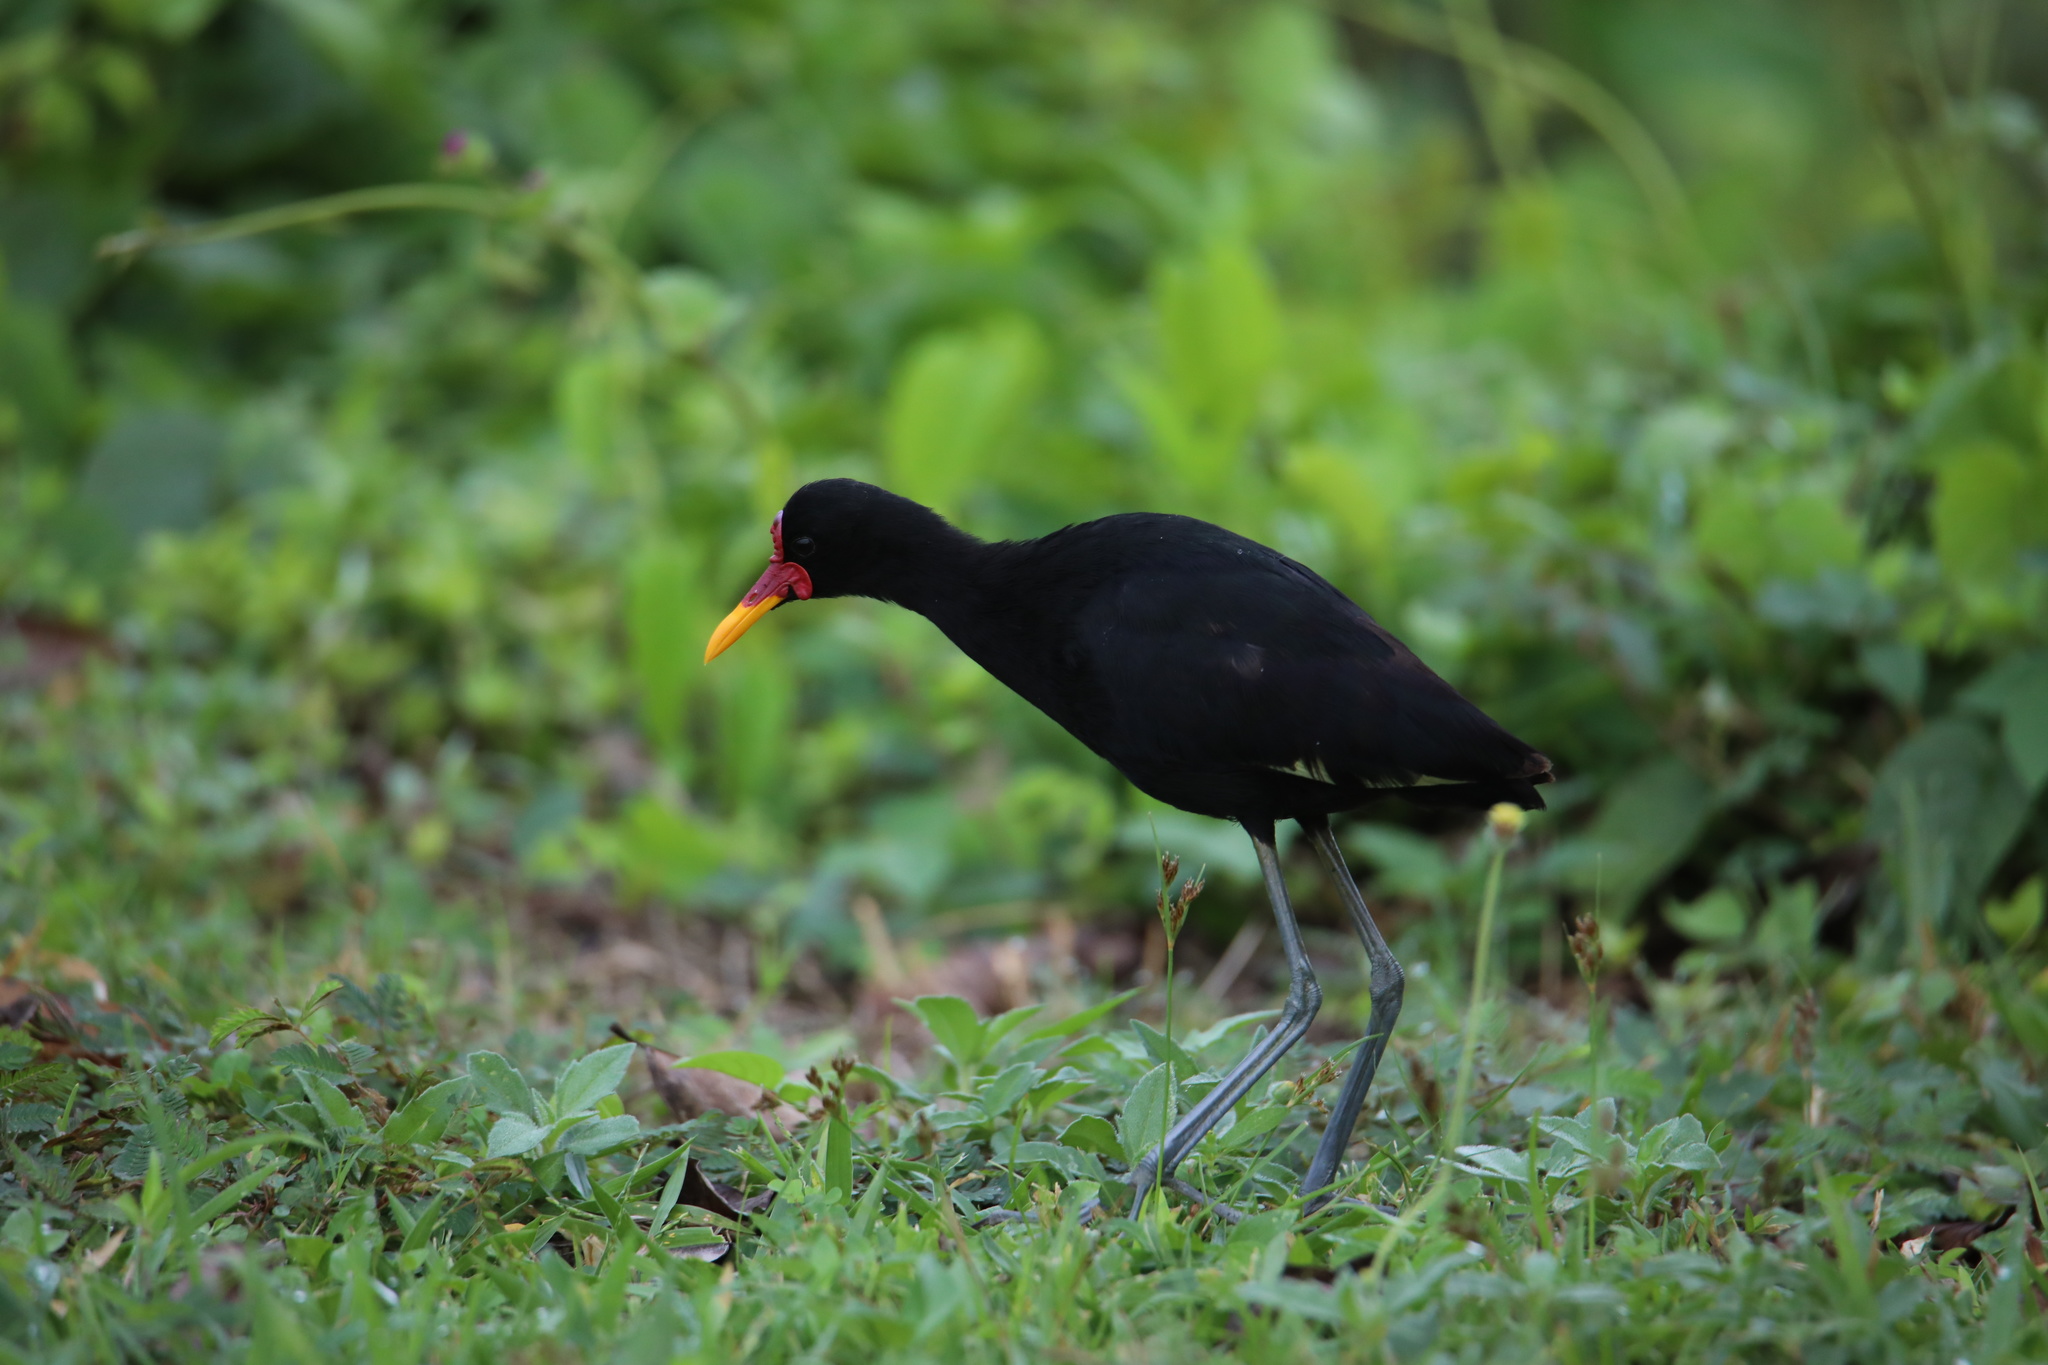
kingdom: Animalia
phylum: Chordata
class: Aves
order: Charadriiformes
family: Jacanidae
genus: Jacana
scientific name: Jacana jacana
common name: Wattled jacana
